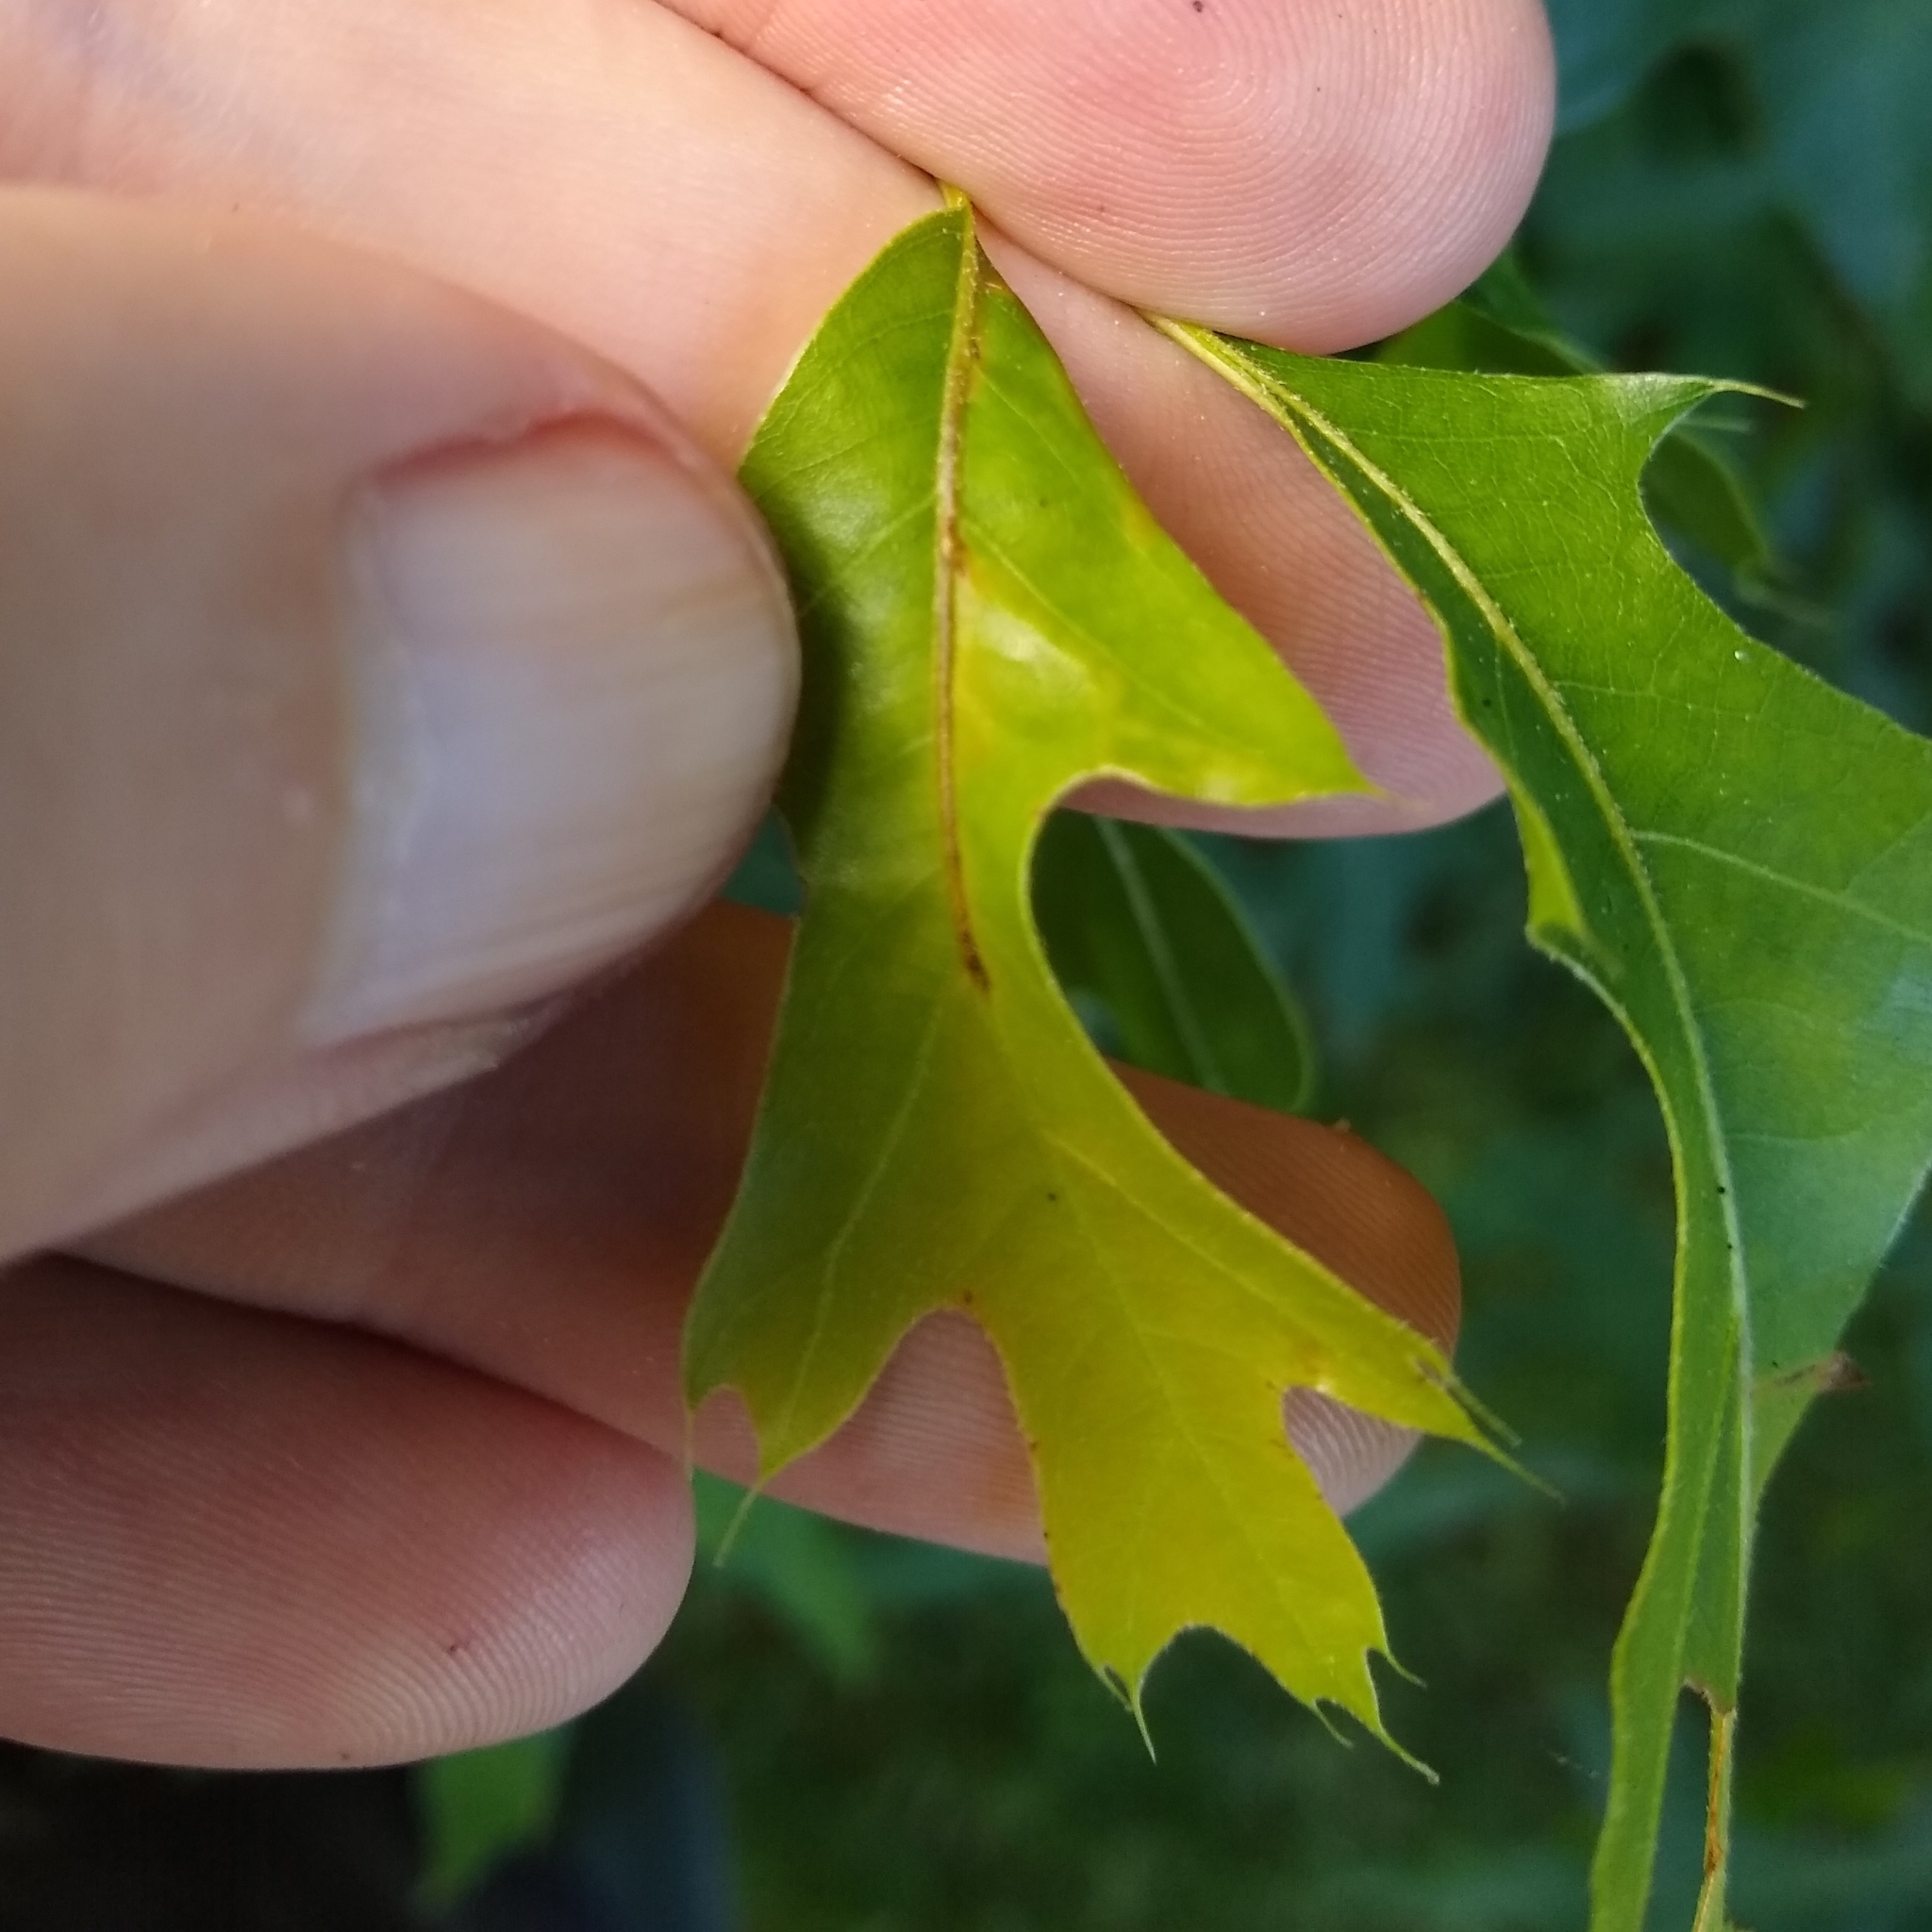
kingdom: Animalia
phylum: Arthropoda
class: Insecta
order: Lepidoptera
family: Gracillariidae
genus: Neurobathra
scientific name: Neurobathra strigifinitella
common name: Finite-channeled leafminer moth
